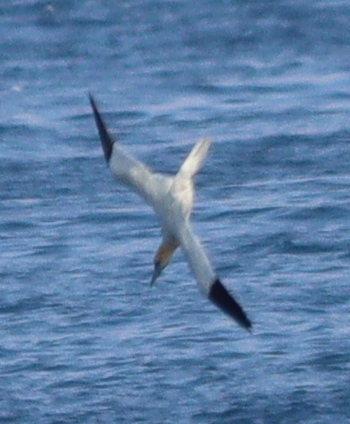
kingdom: Animalia
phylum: Chordata
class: Aves
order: Suliformes
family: Sulidae
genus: Morus
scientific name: Morus bassanus
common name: Northern gannet
